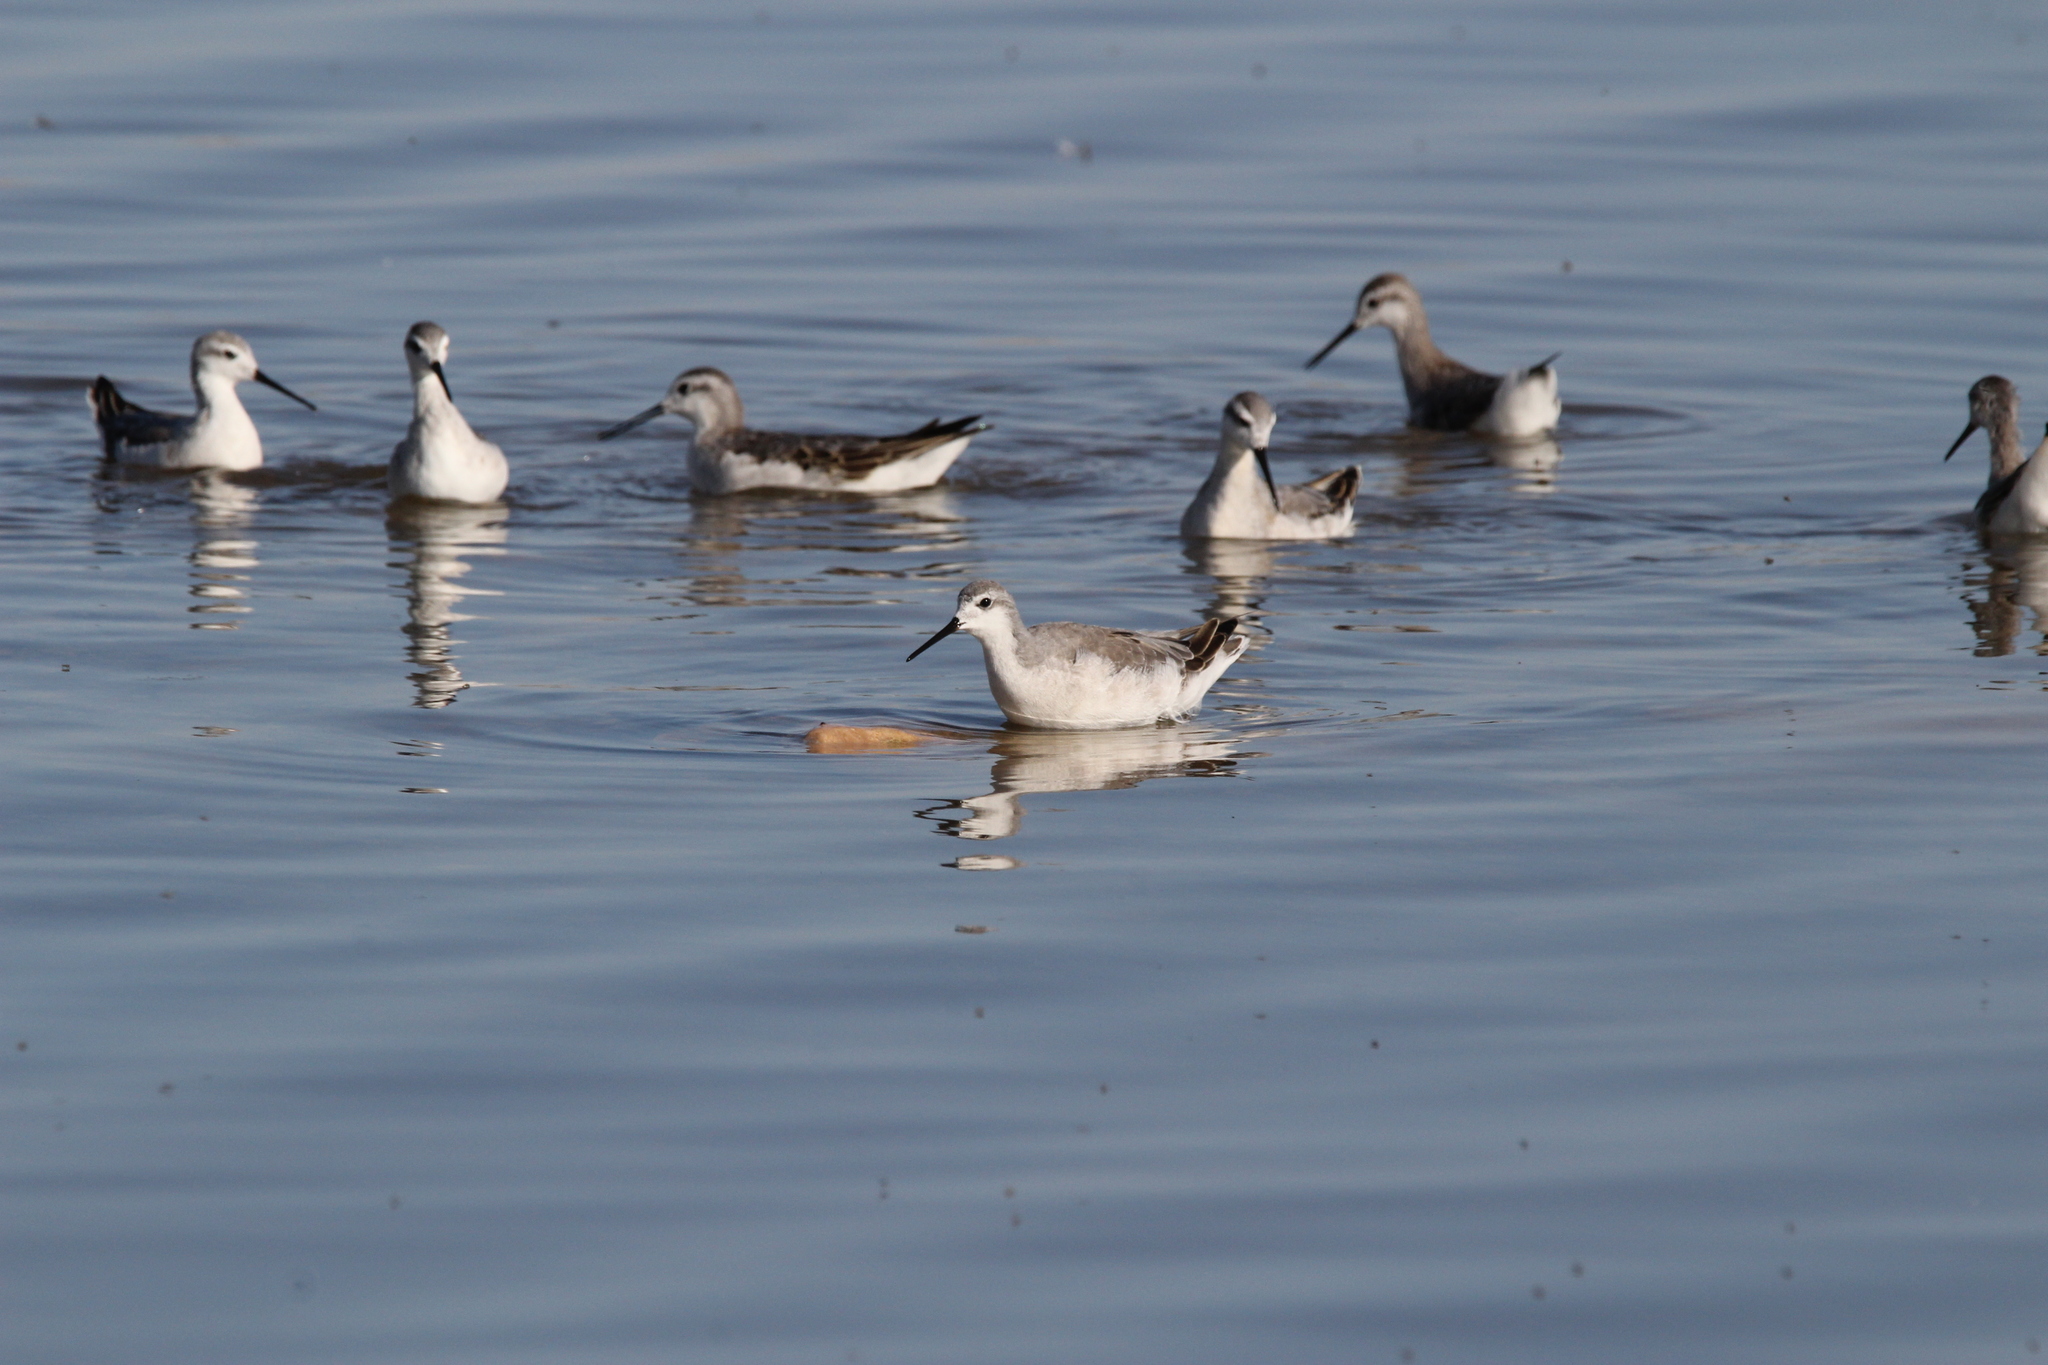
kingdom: Animalia
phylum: Chordata
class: Aves
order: Charadriiformes
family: Scolopacidae
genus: Phalaropus
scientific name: Phalaropus tricolor
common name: Wilson's phalarope
